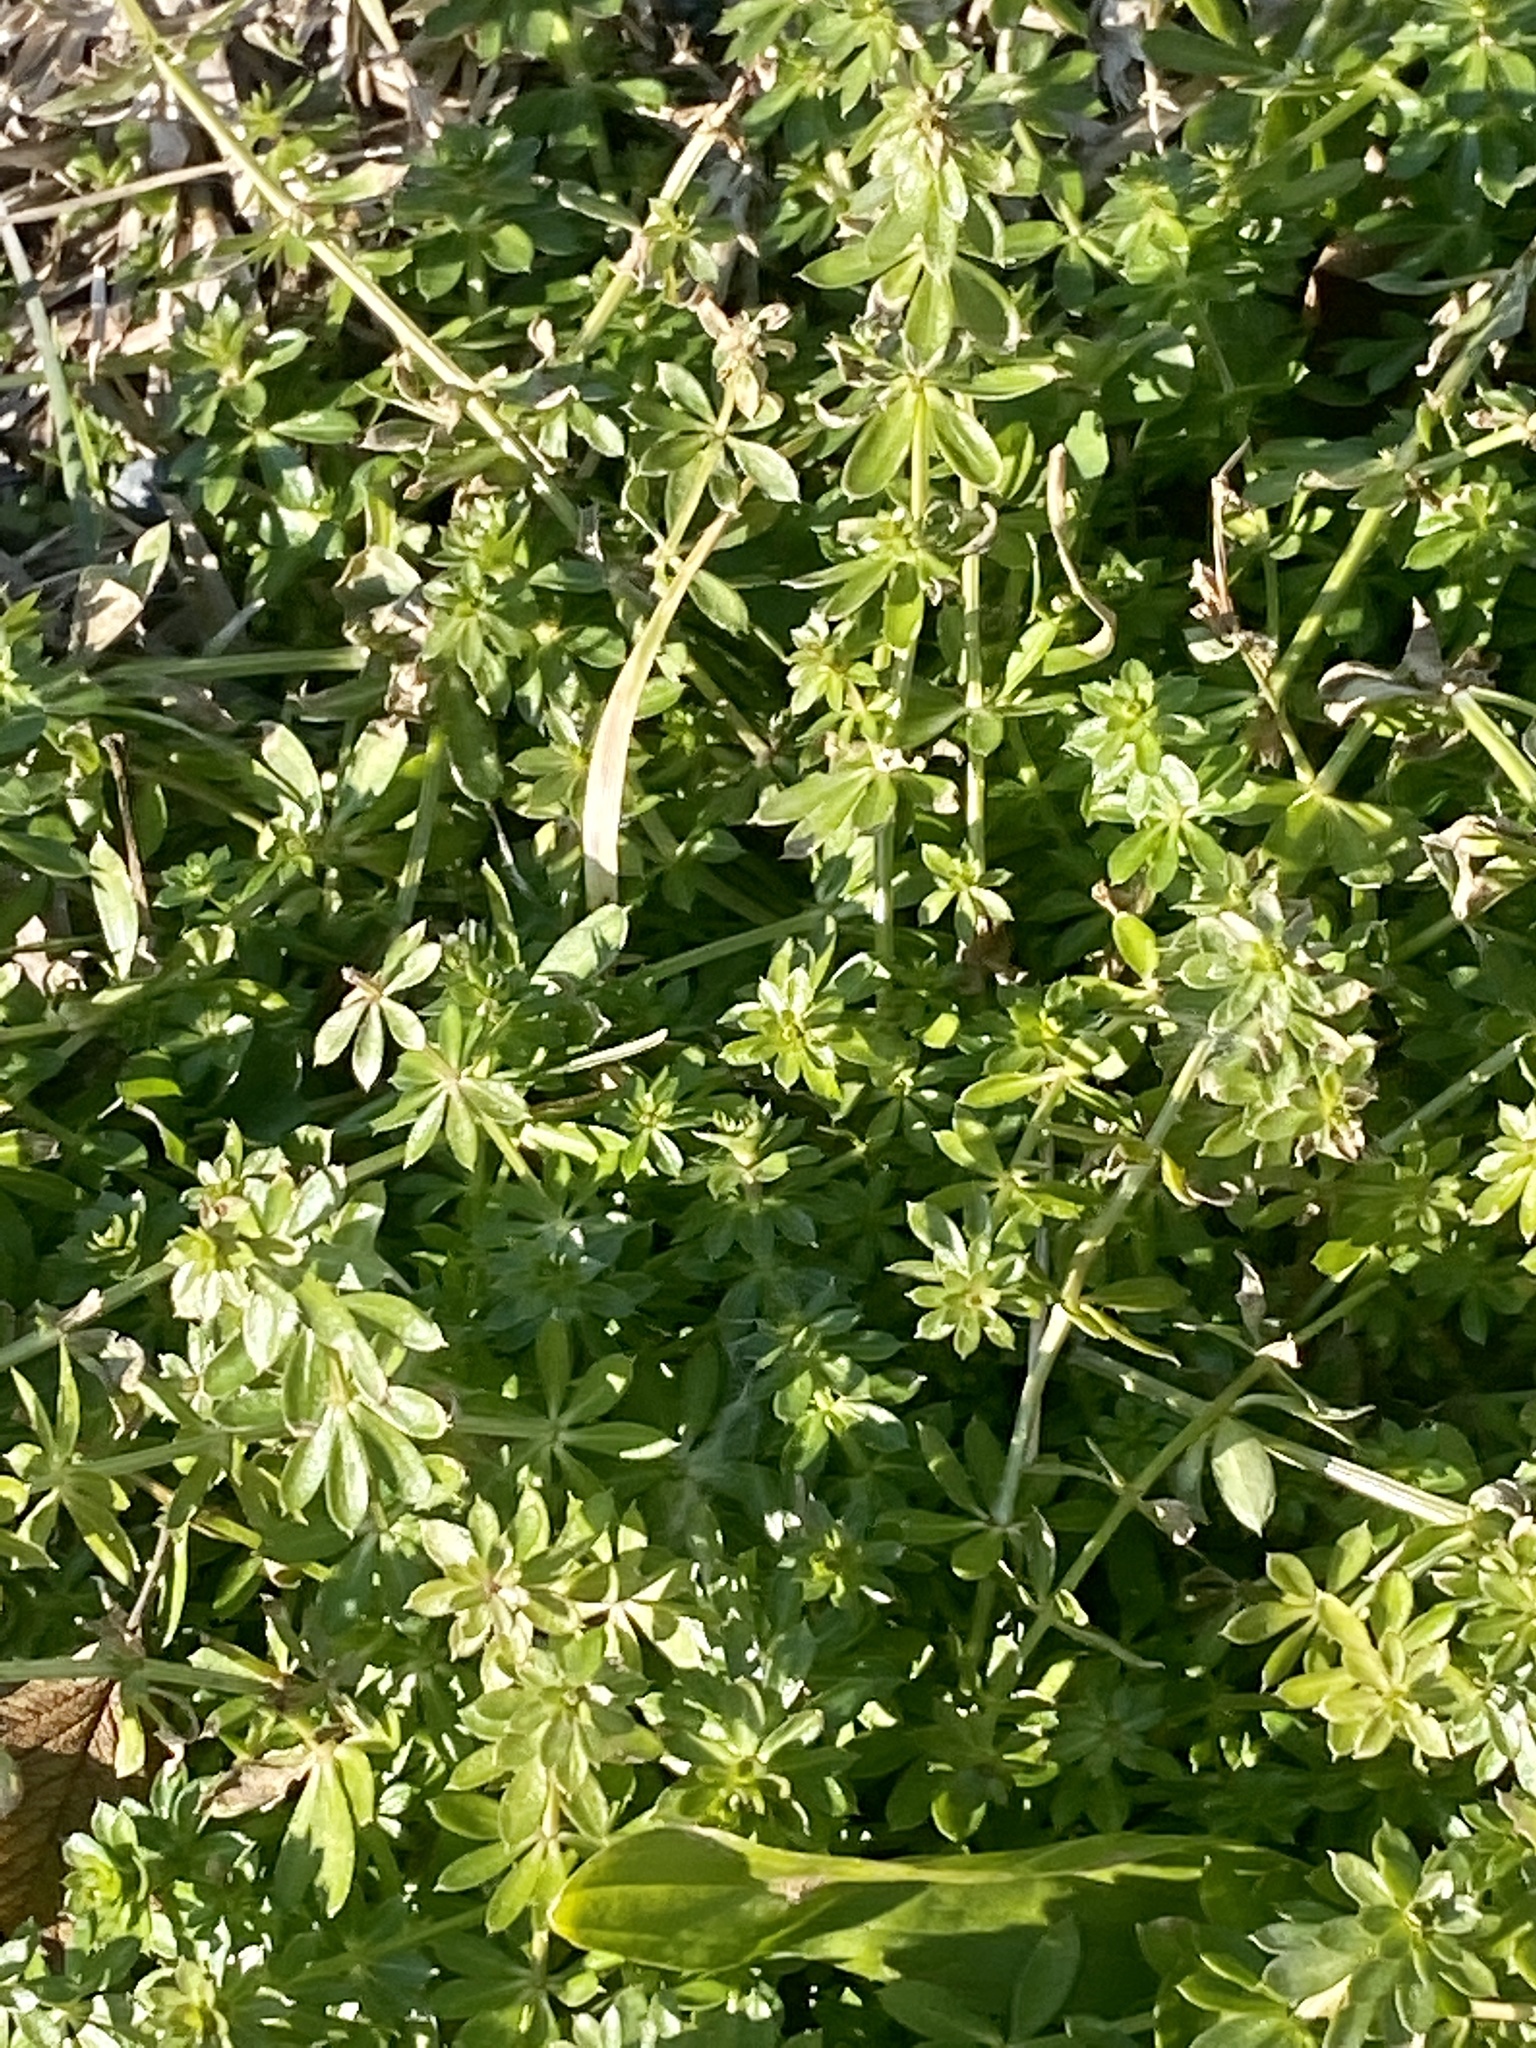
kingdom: Plantae
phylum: Tracheophyta
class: Magnoliopsida
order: Gentianales
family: Rubiaceae
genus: Galium
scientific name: Galium mollugo
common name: Hedge bedstraw
